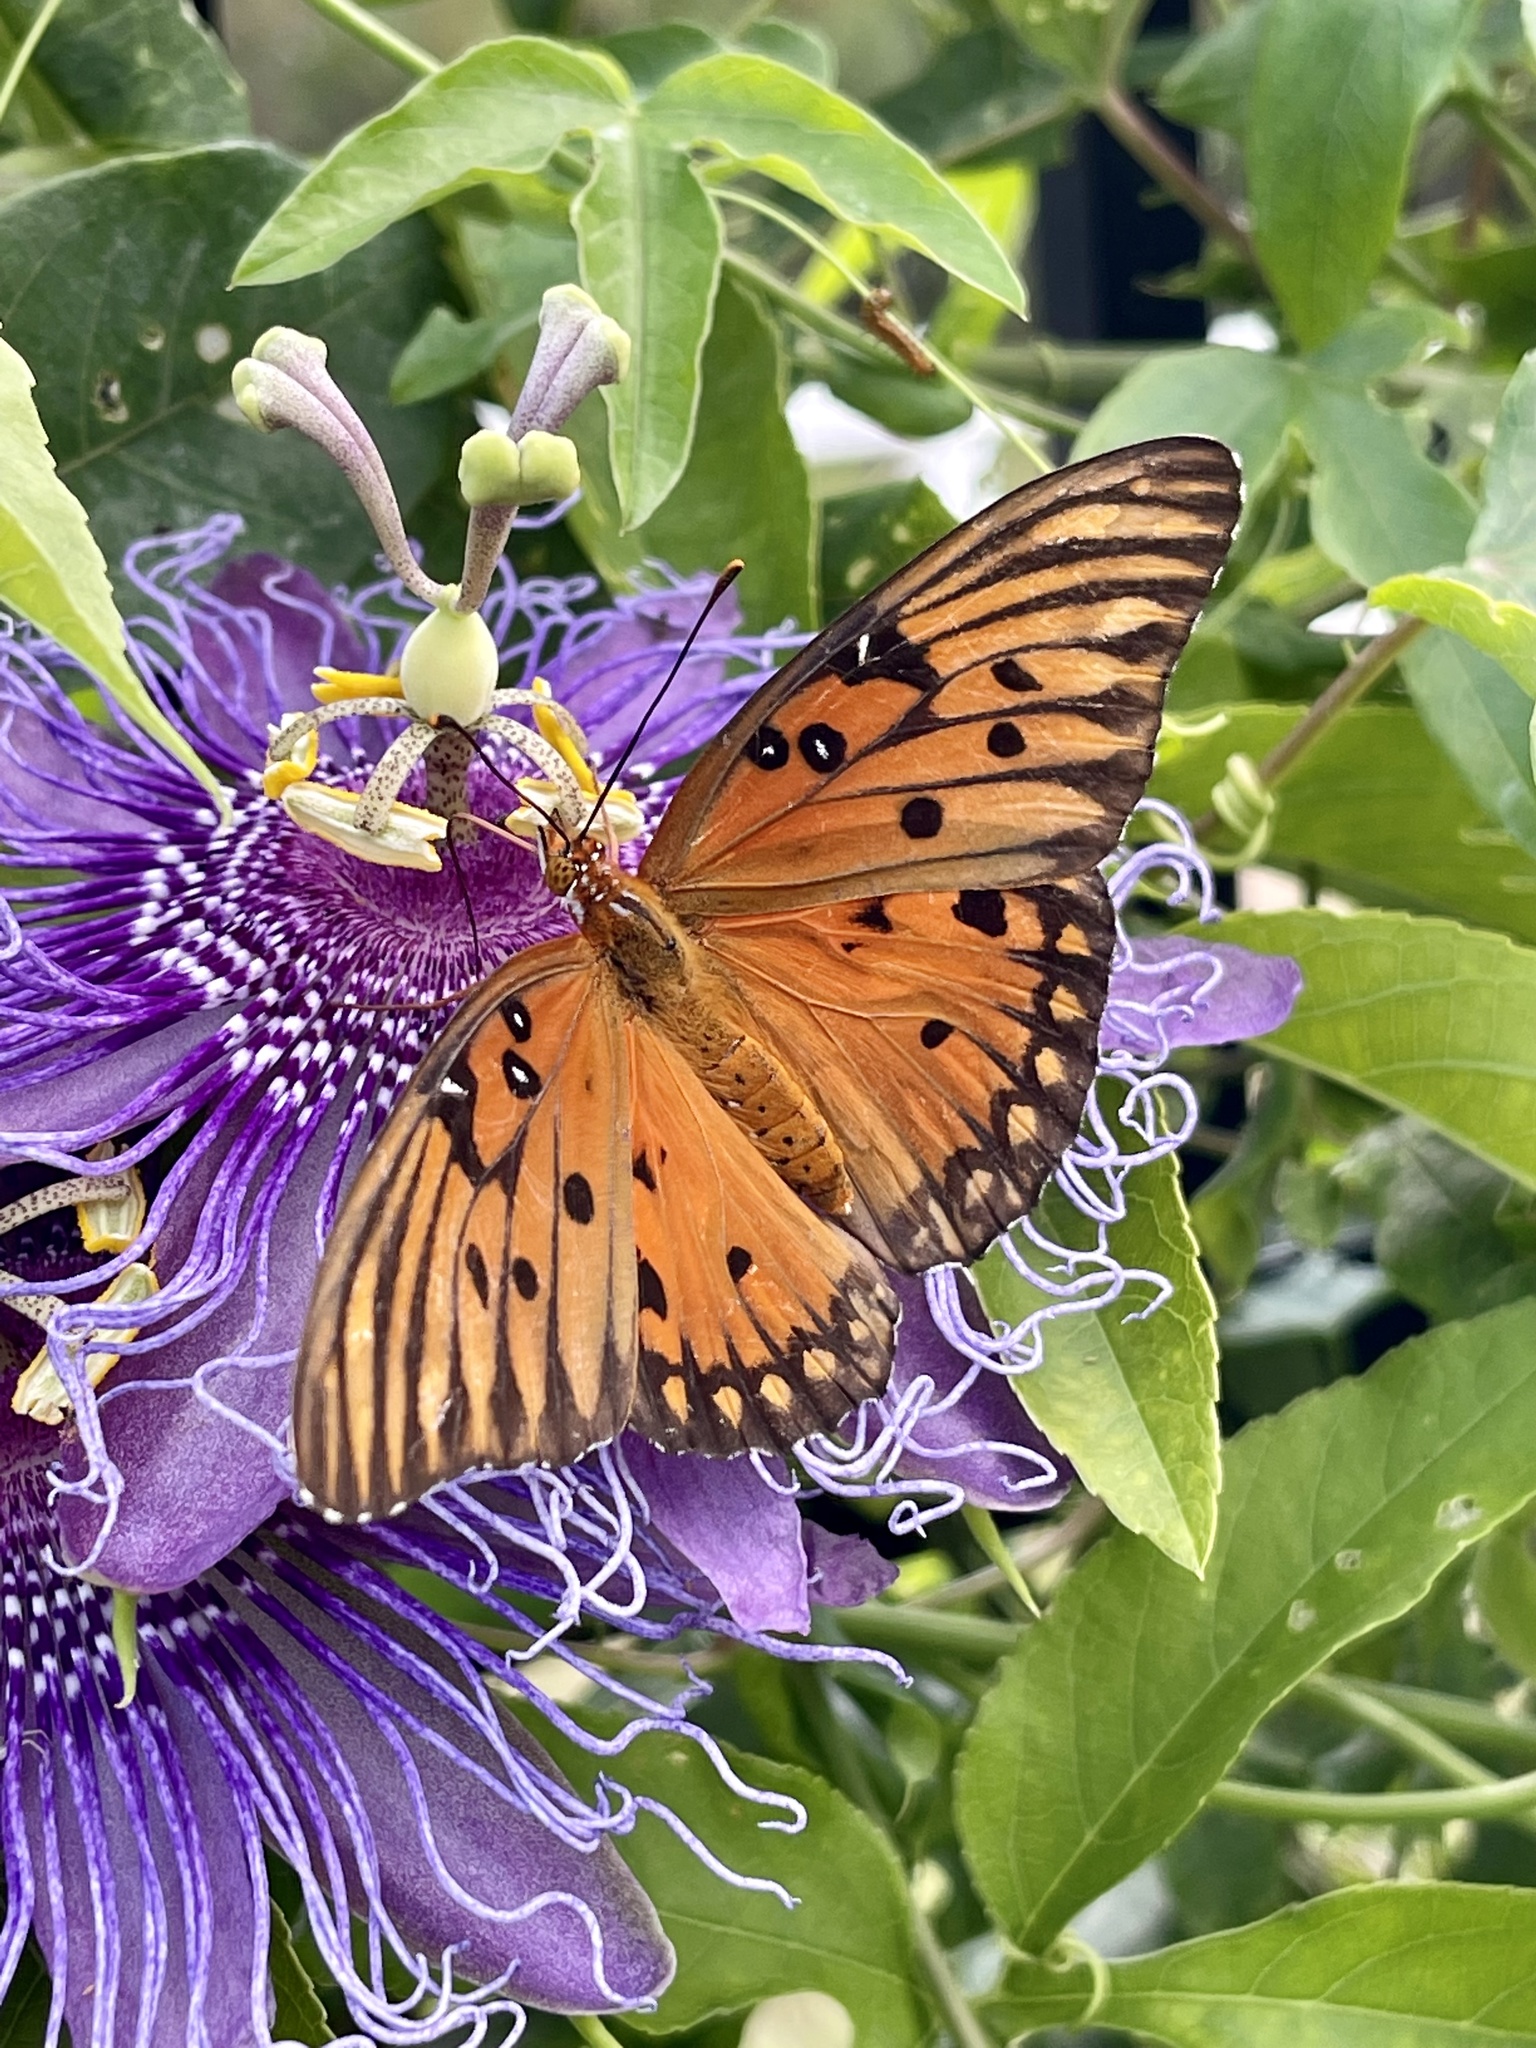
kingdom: Animalia
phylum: Arthropoda
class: Insecta
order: Lepidoptera
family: Nymphalidae
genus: Dione
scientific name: Dione vanillae
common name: Gulf fritillary
